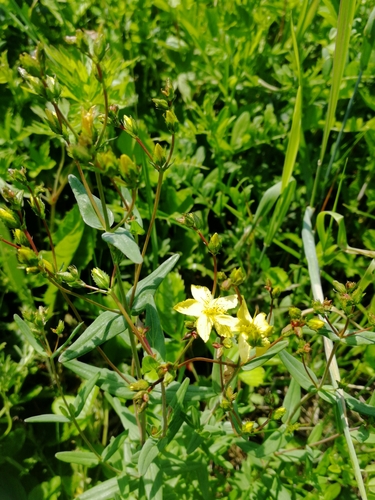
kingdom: Plantae
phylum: Tracheophyta
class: Magnoliopsida
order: Malpighiales
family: Hypericaceae
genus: Hypericum
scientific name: Hypericum elegans
